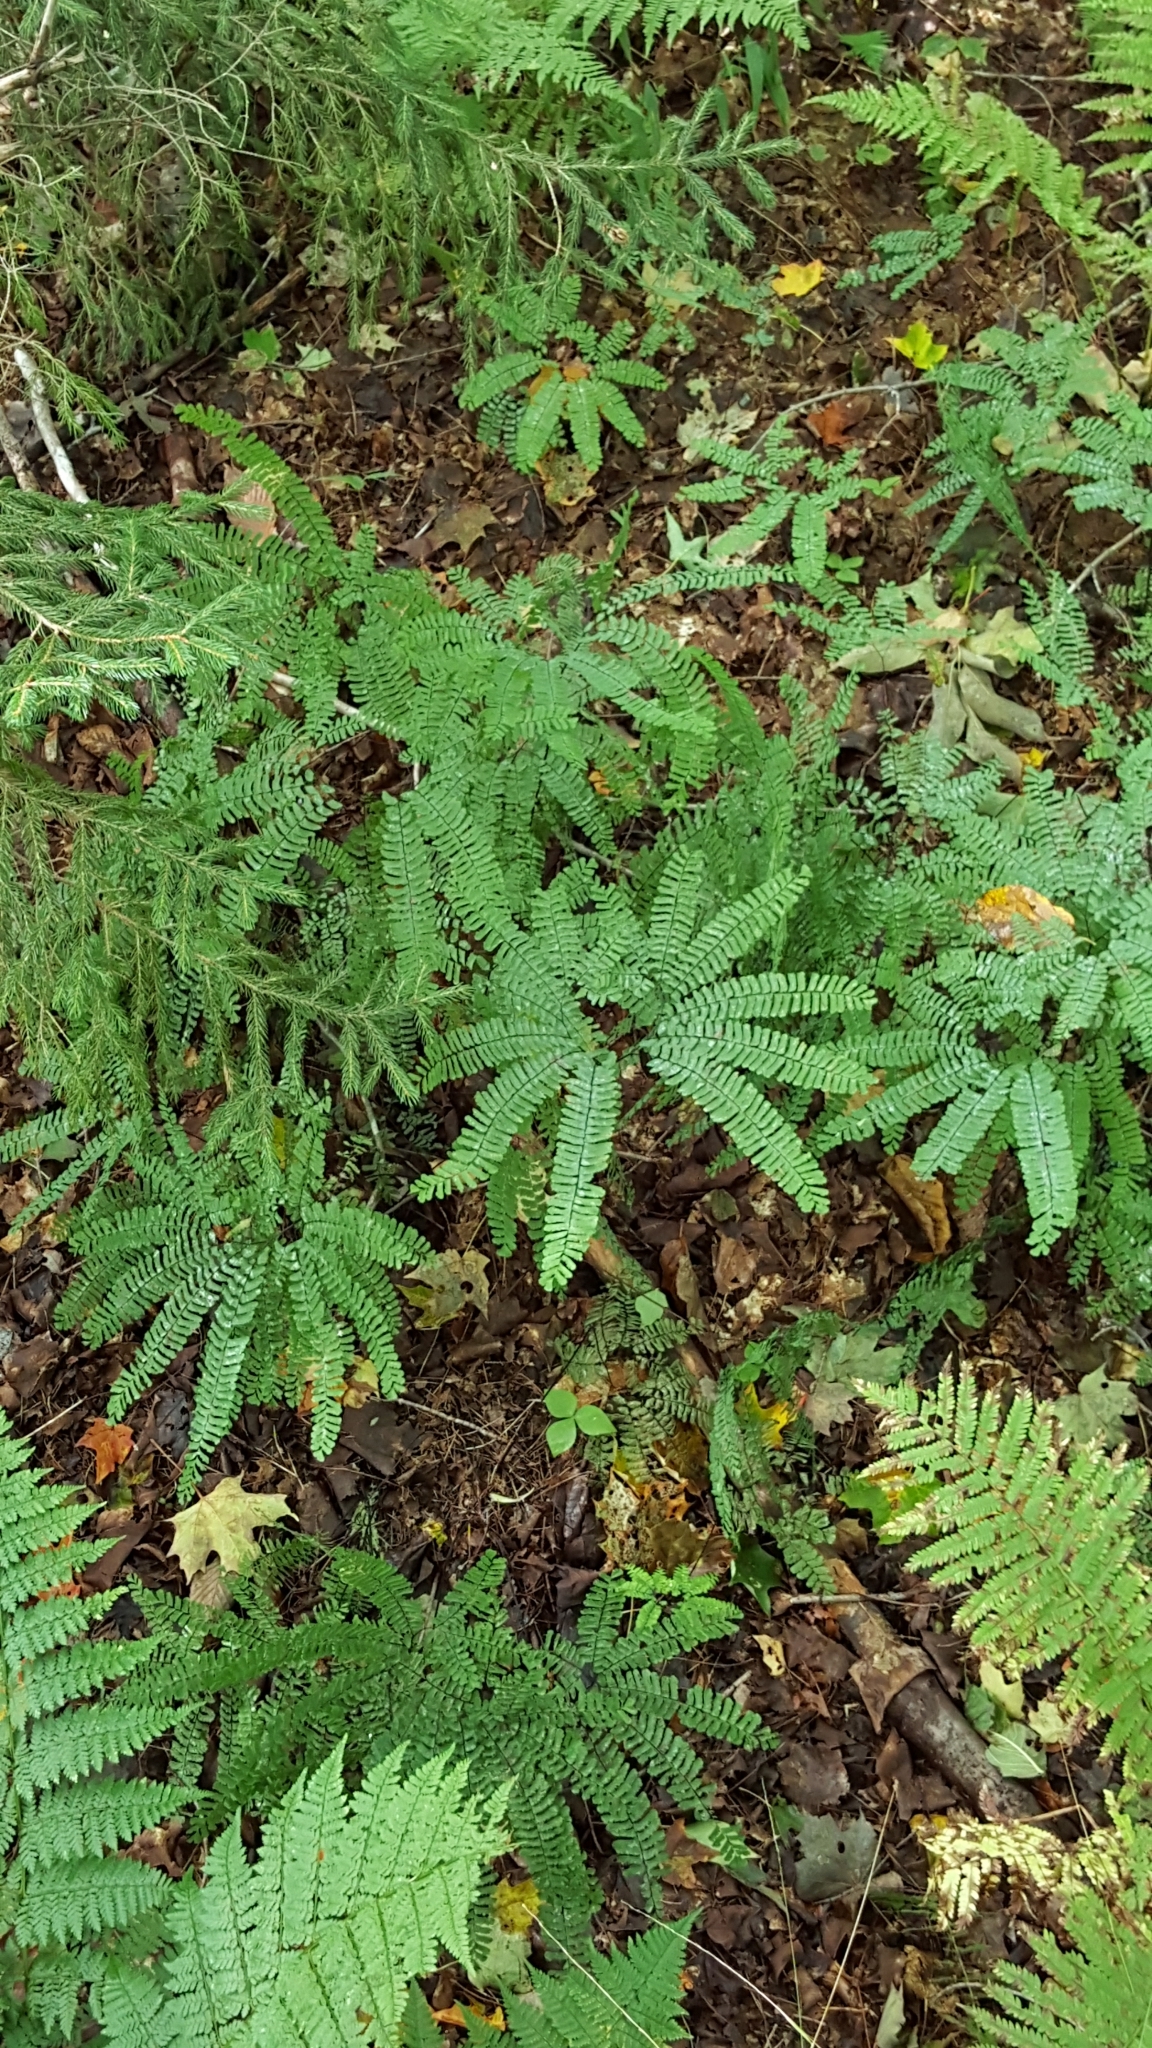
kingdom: Plantae
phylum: Tracheophyta
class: Polypodiopsida
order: Polypodiales
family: Pteridaceae
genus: Adiantum
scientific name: Adiantum pedatum
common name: Five-finger fern
